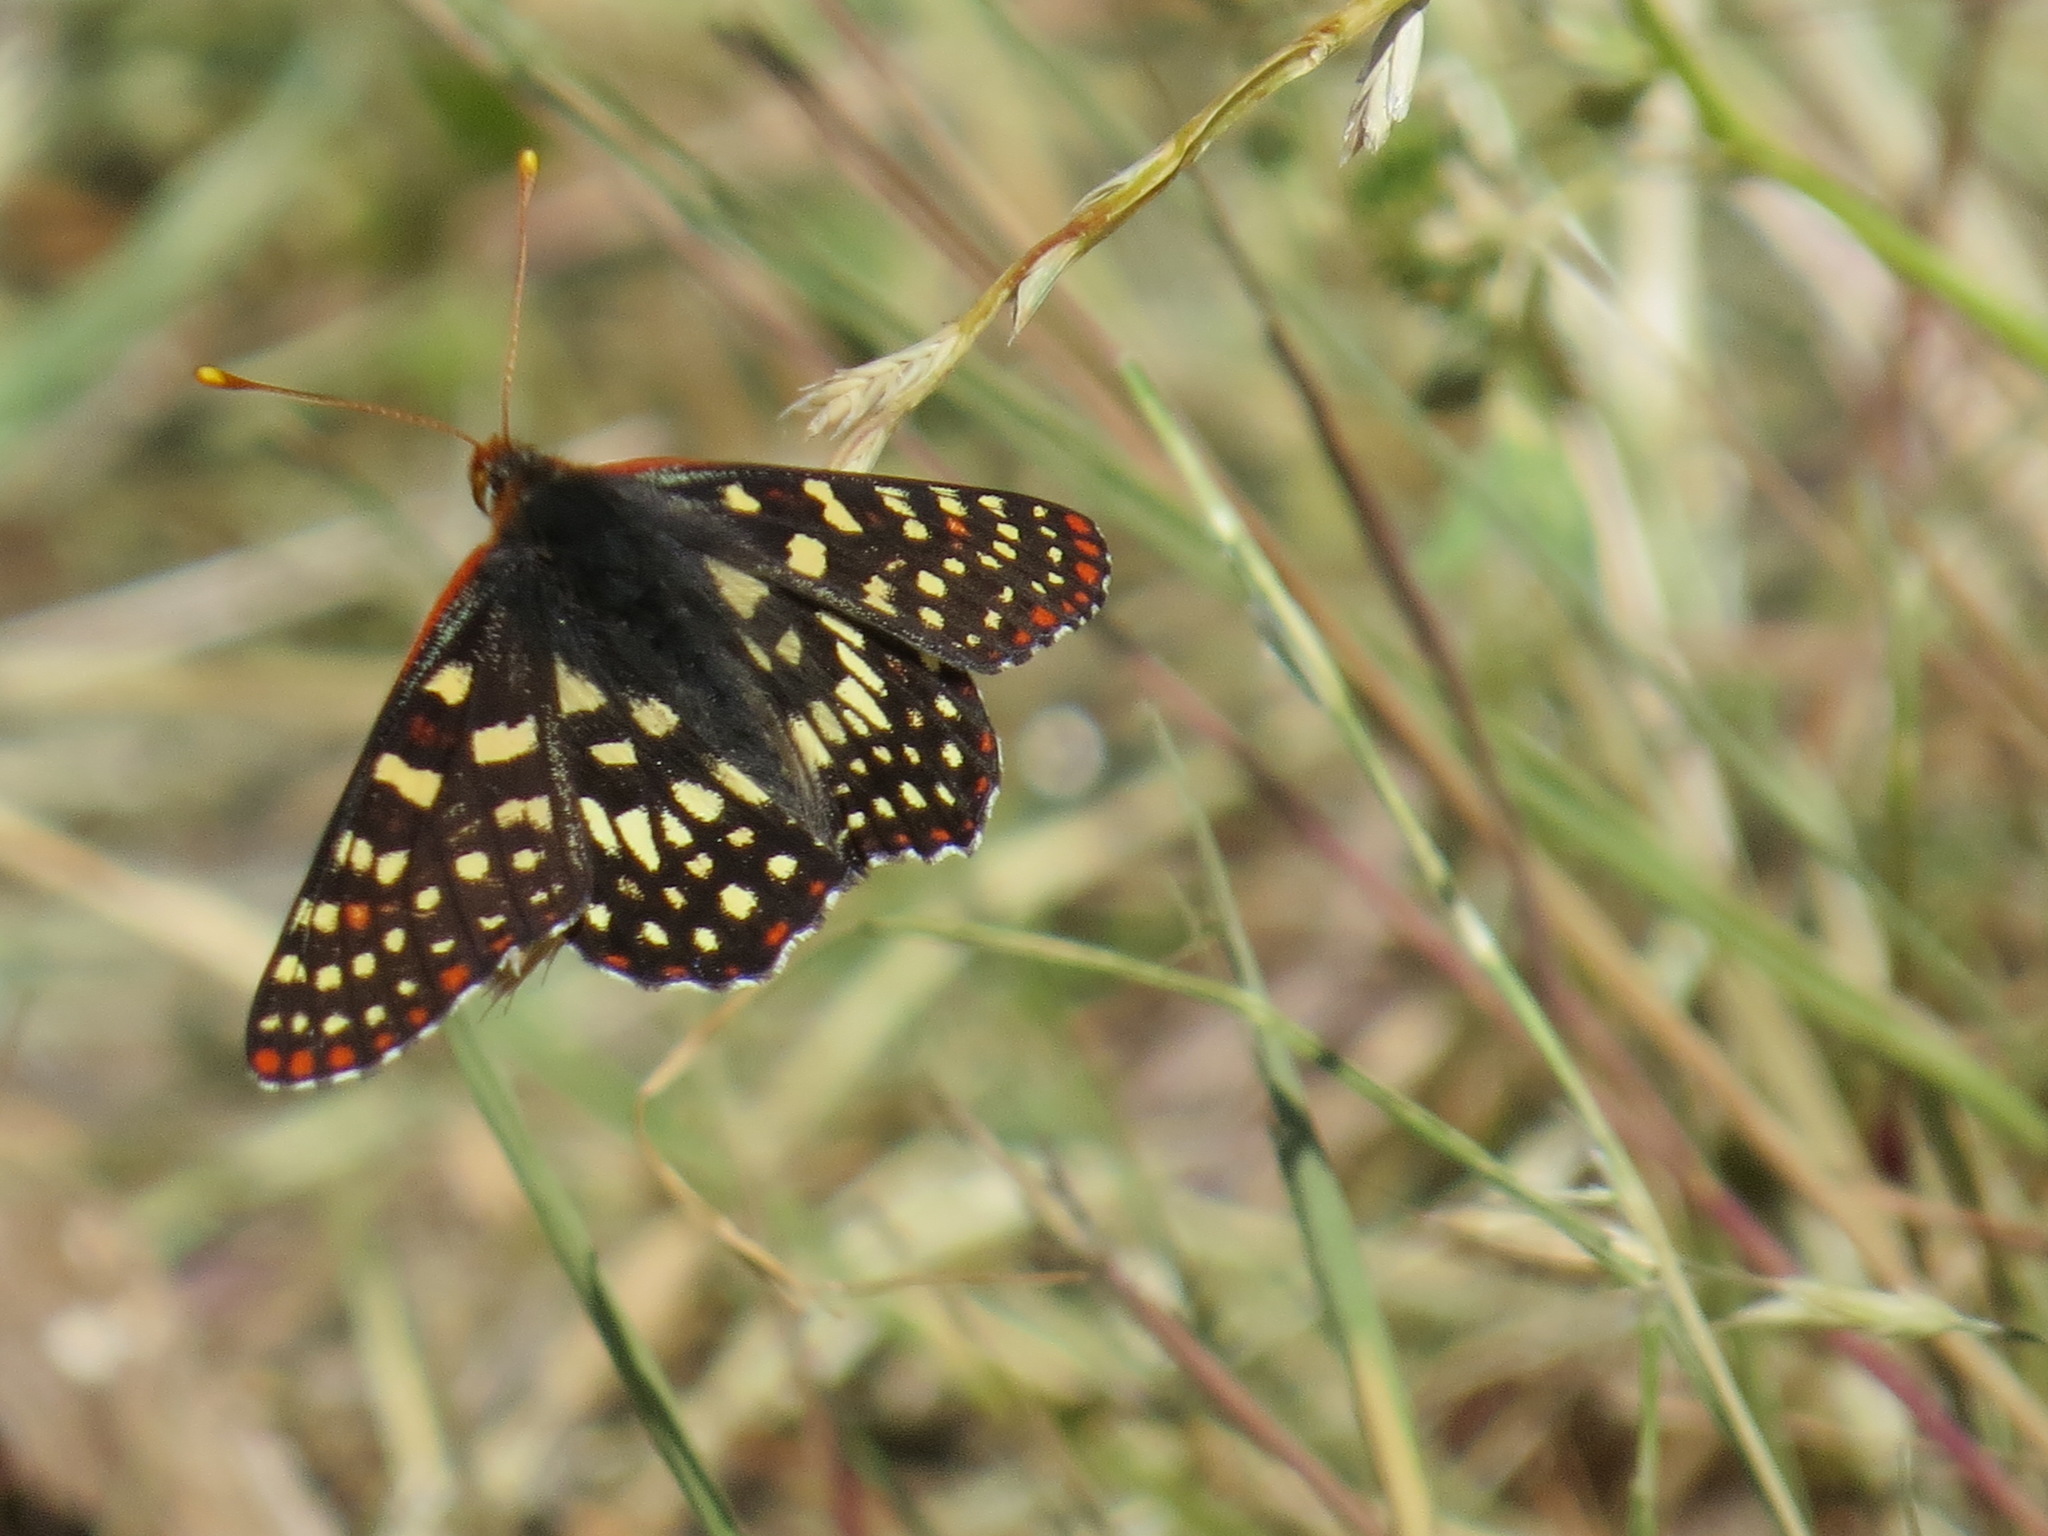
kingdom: Animalia
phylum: Arthropoda
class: Insecta
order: Lepidoptera
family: Nymphalidae
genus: Occidryas
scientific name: Occidryas chalcedona
